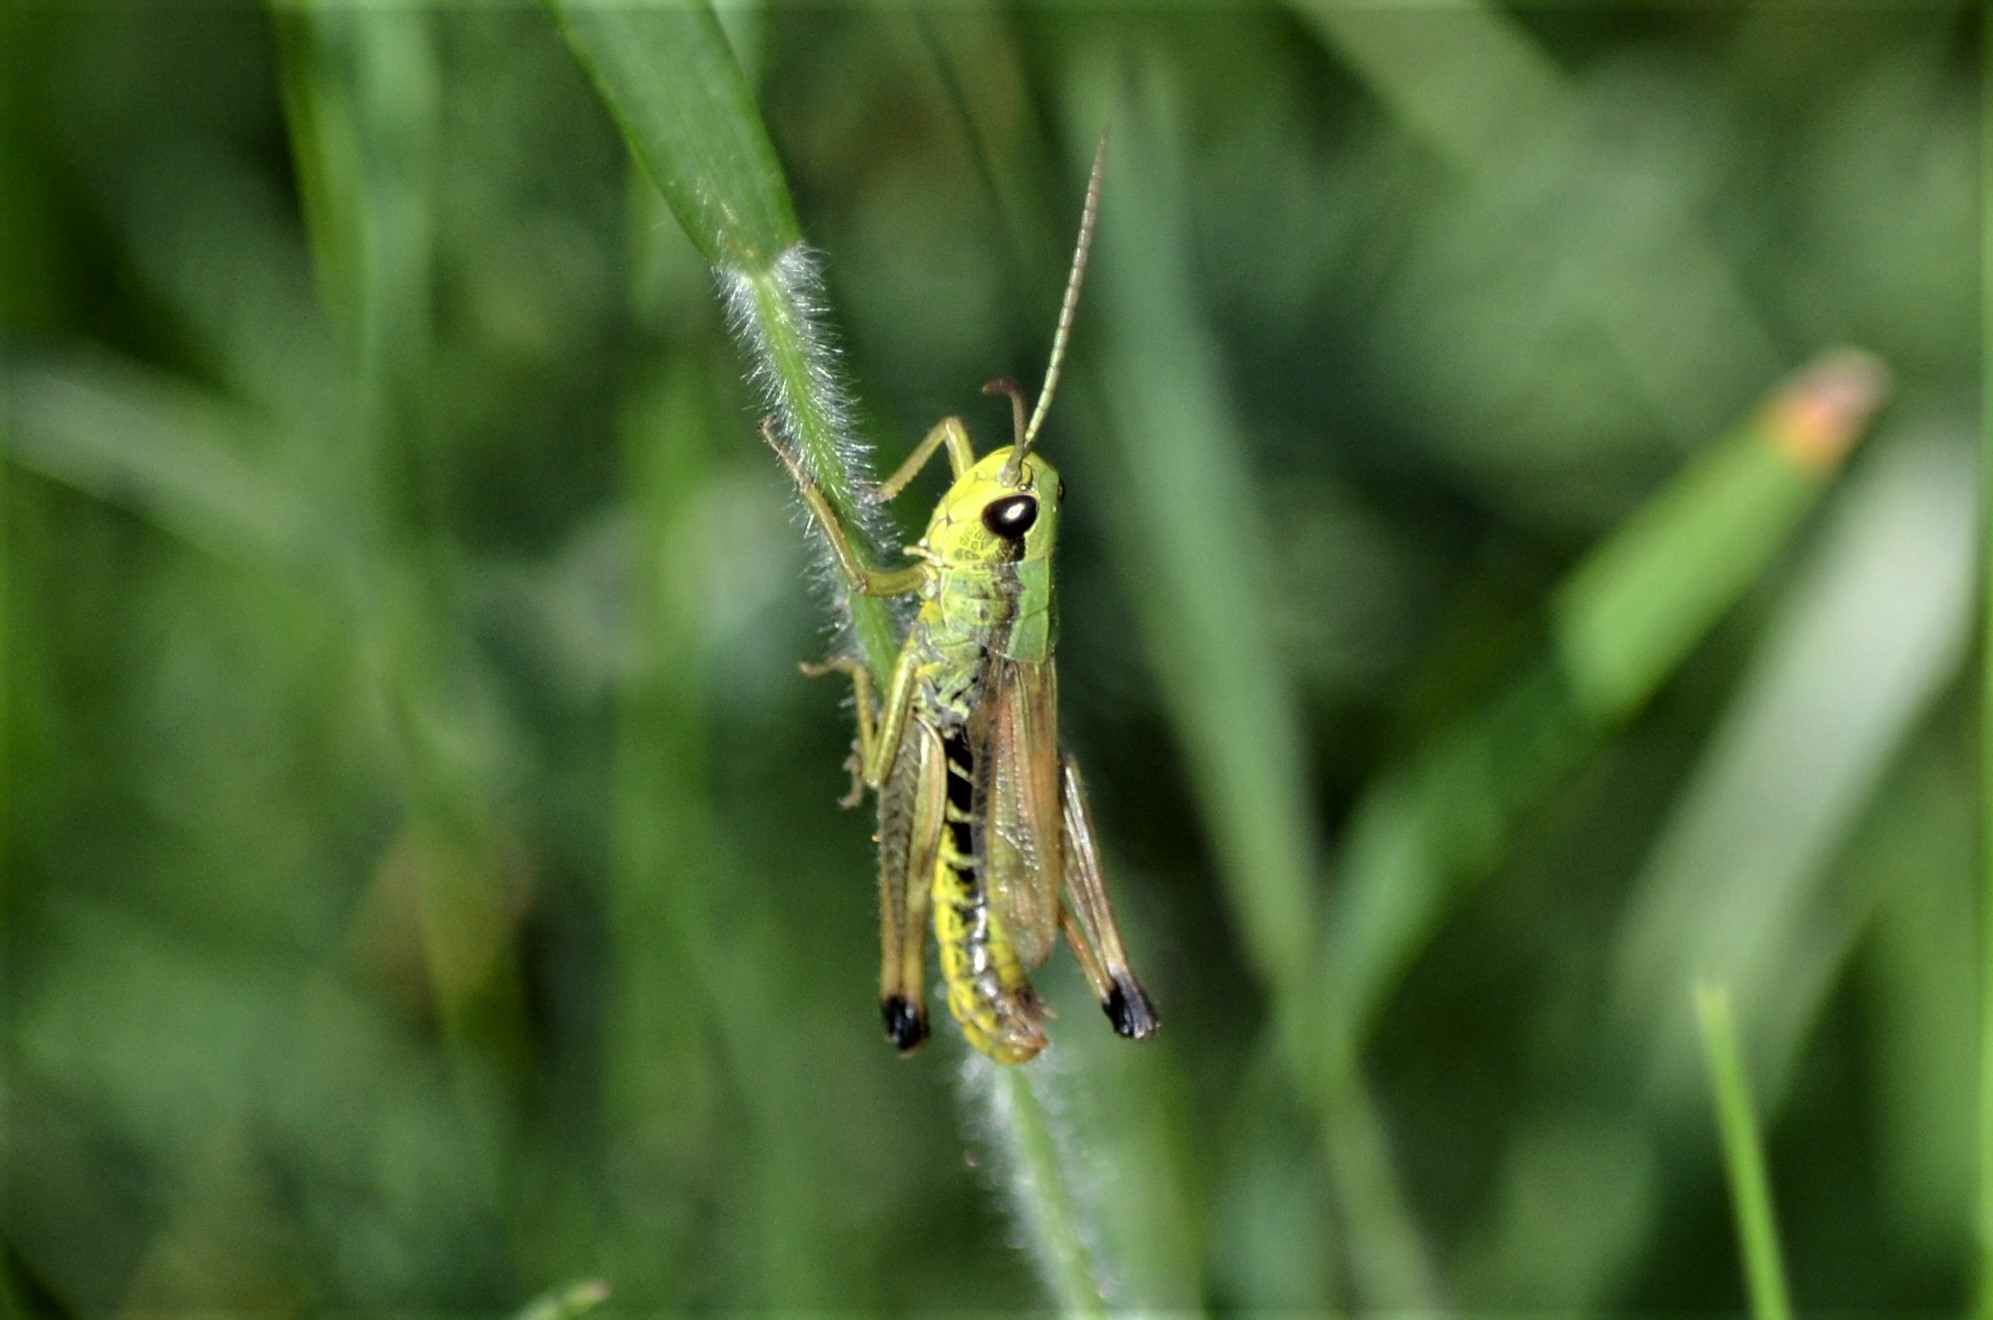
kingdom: Animalia
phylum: Arthropoda
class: Insecta
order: Orthoptera
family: Acrididae
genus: Pseudochorthippus
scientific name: Pseudochorthippus parallelus
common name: Meadow grasshopper
